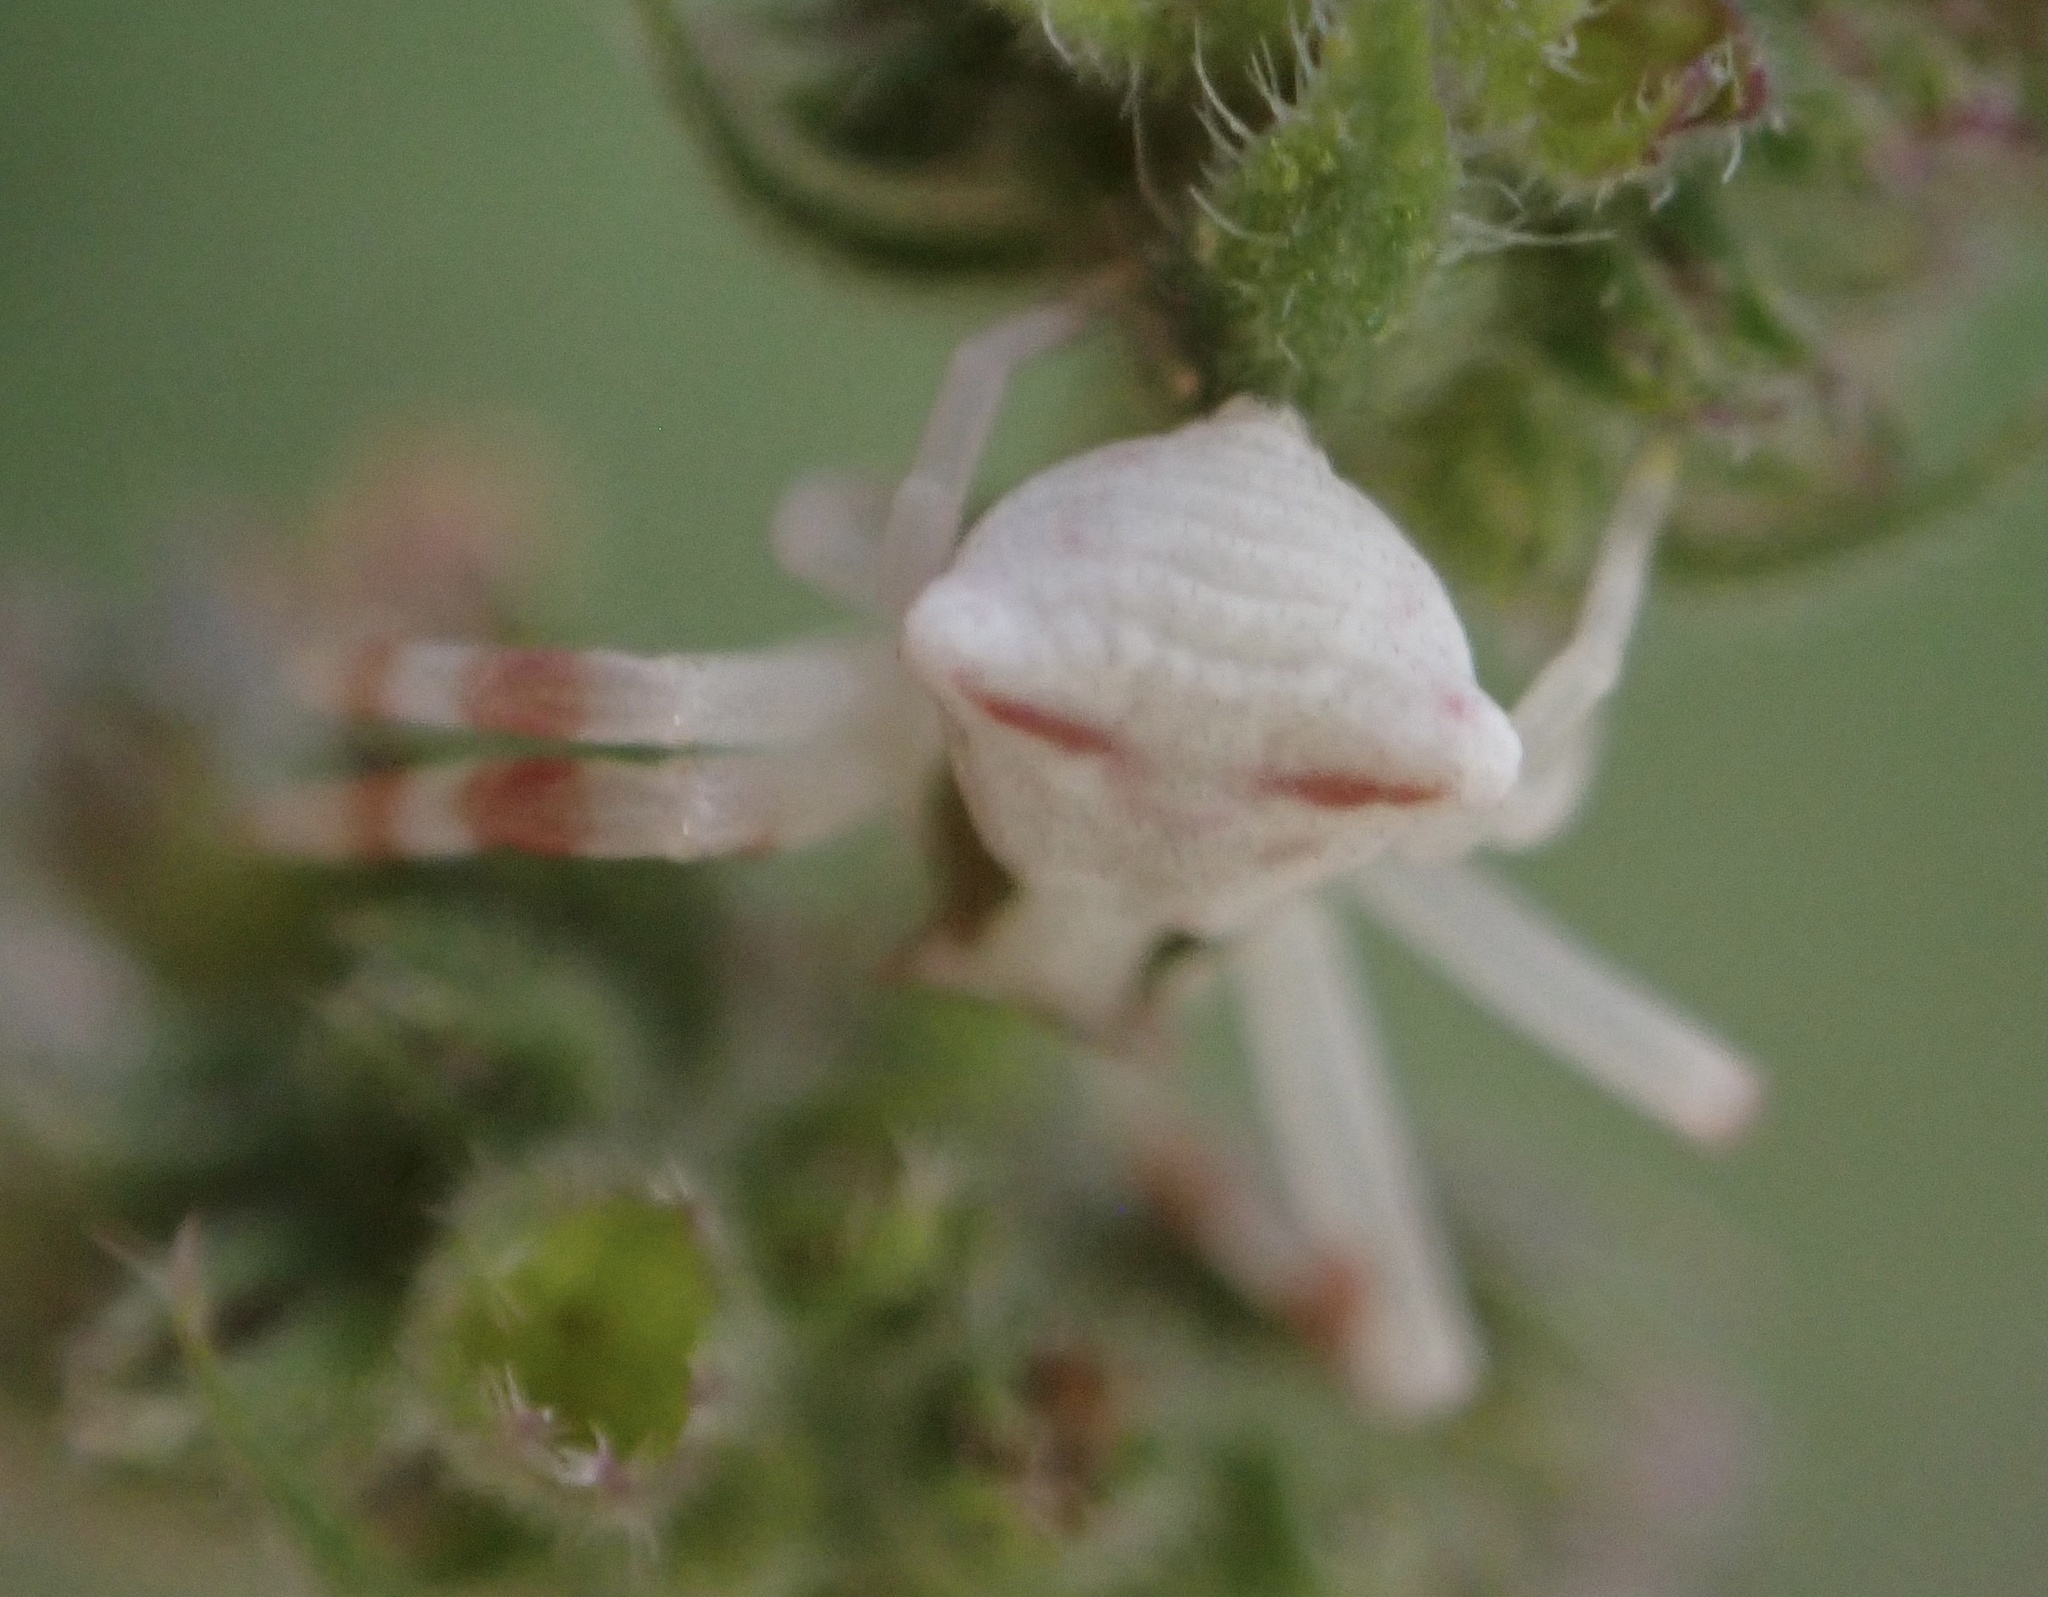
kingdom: Animalia
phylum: Arthropoda
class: Arachnida
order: Araneae
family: Thomisidae
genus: Thomisus
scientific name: Thomisus onustus
